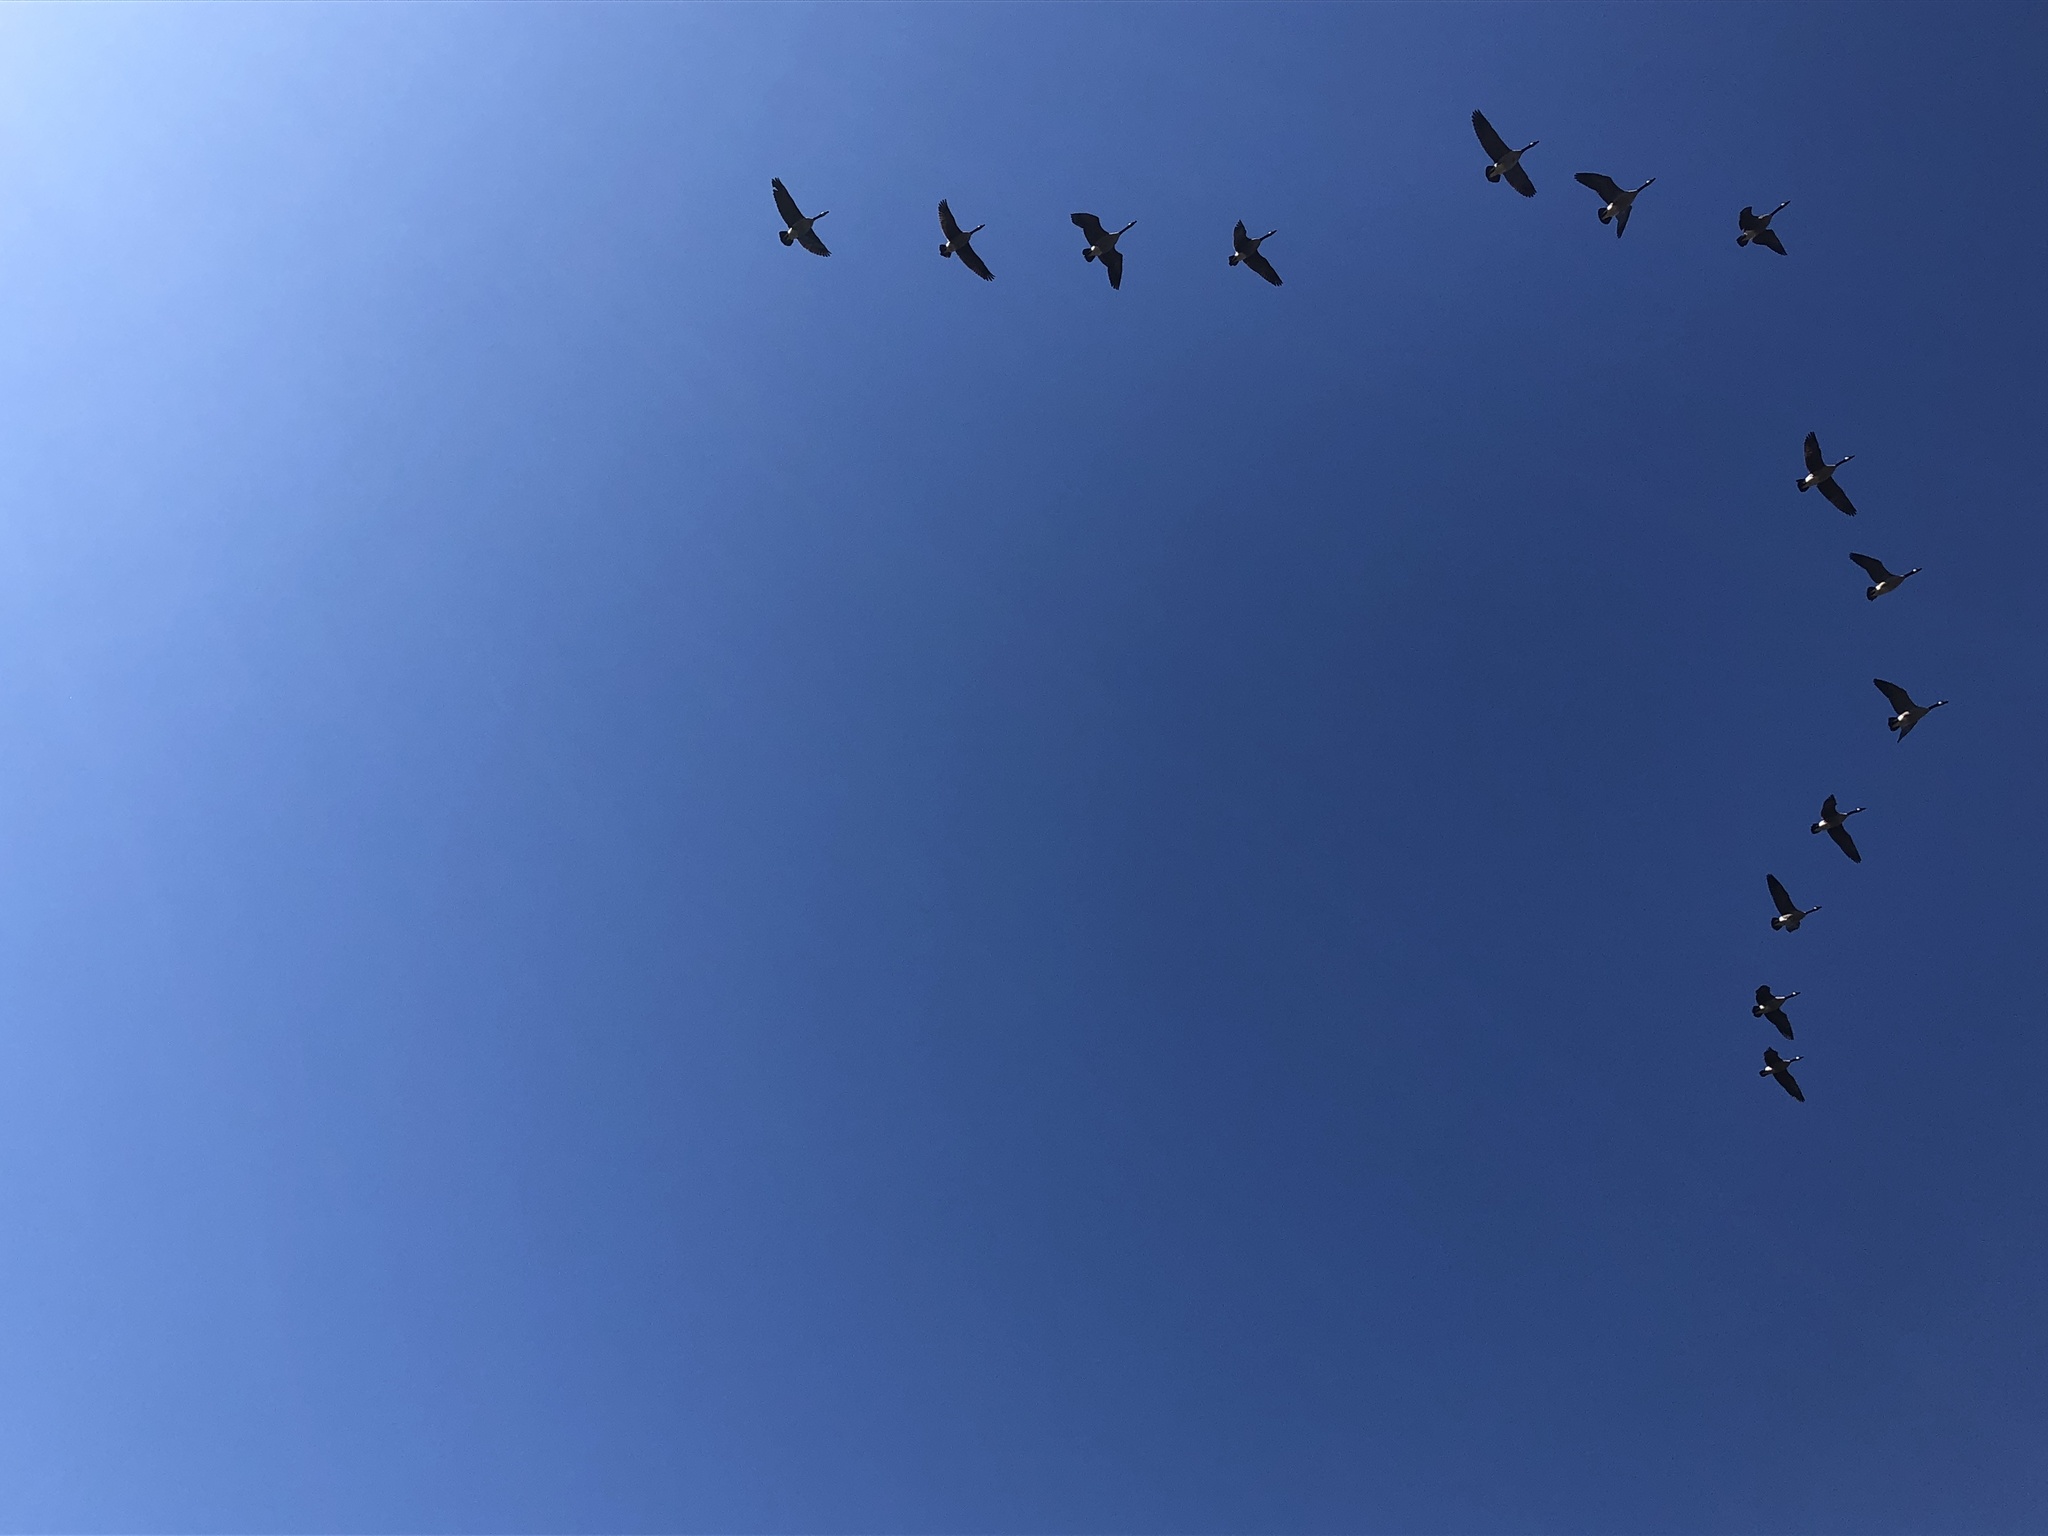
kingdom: Animalia
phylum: Chordata
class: Aves
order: Anseriformes
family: Anatidae
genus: Branta
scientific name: Branta canadensis
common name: Canada goose
